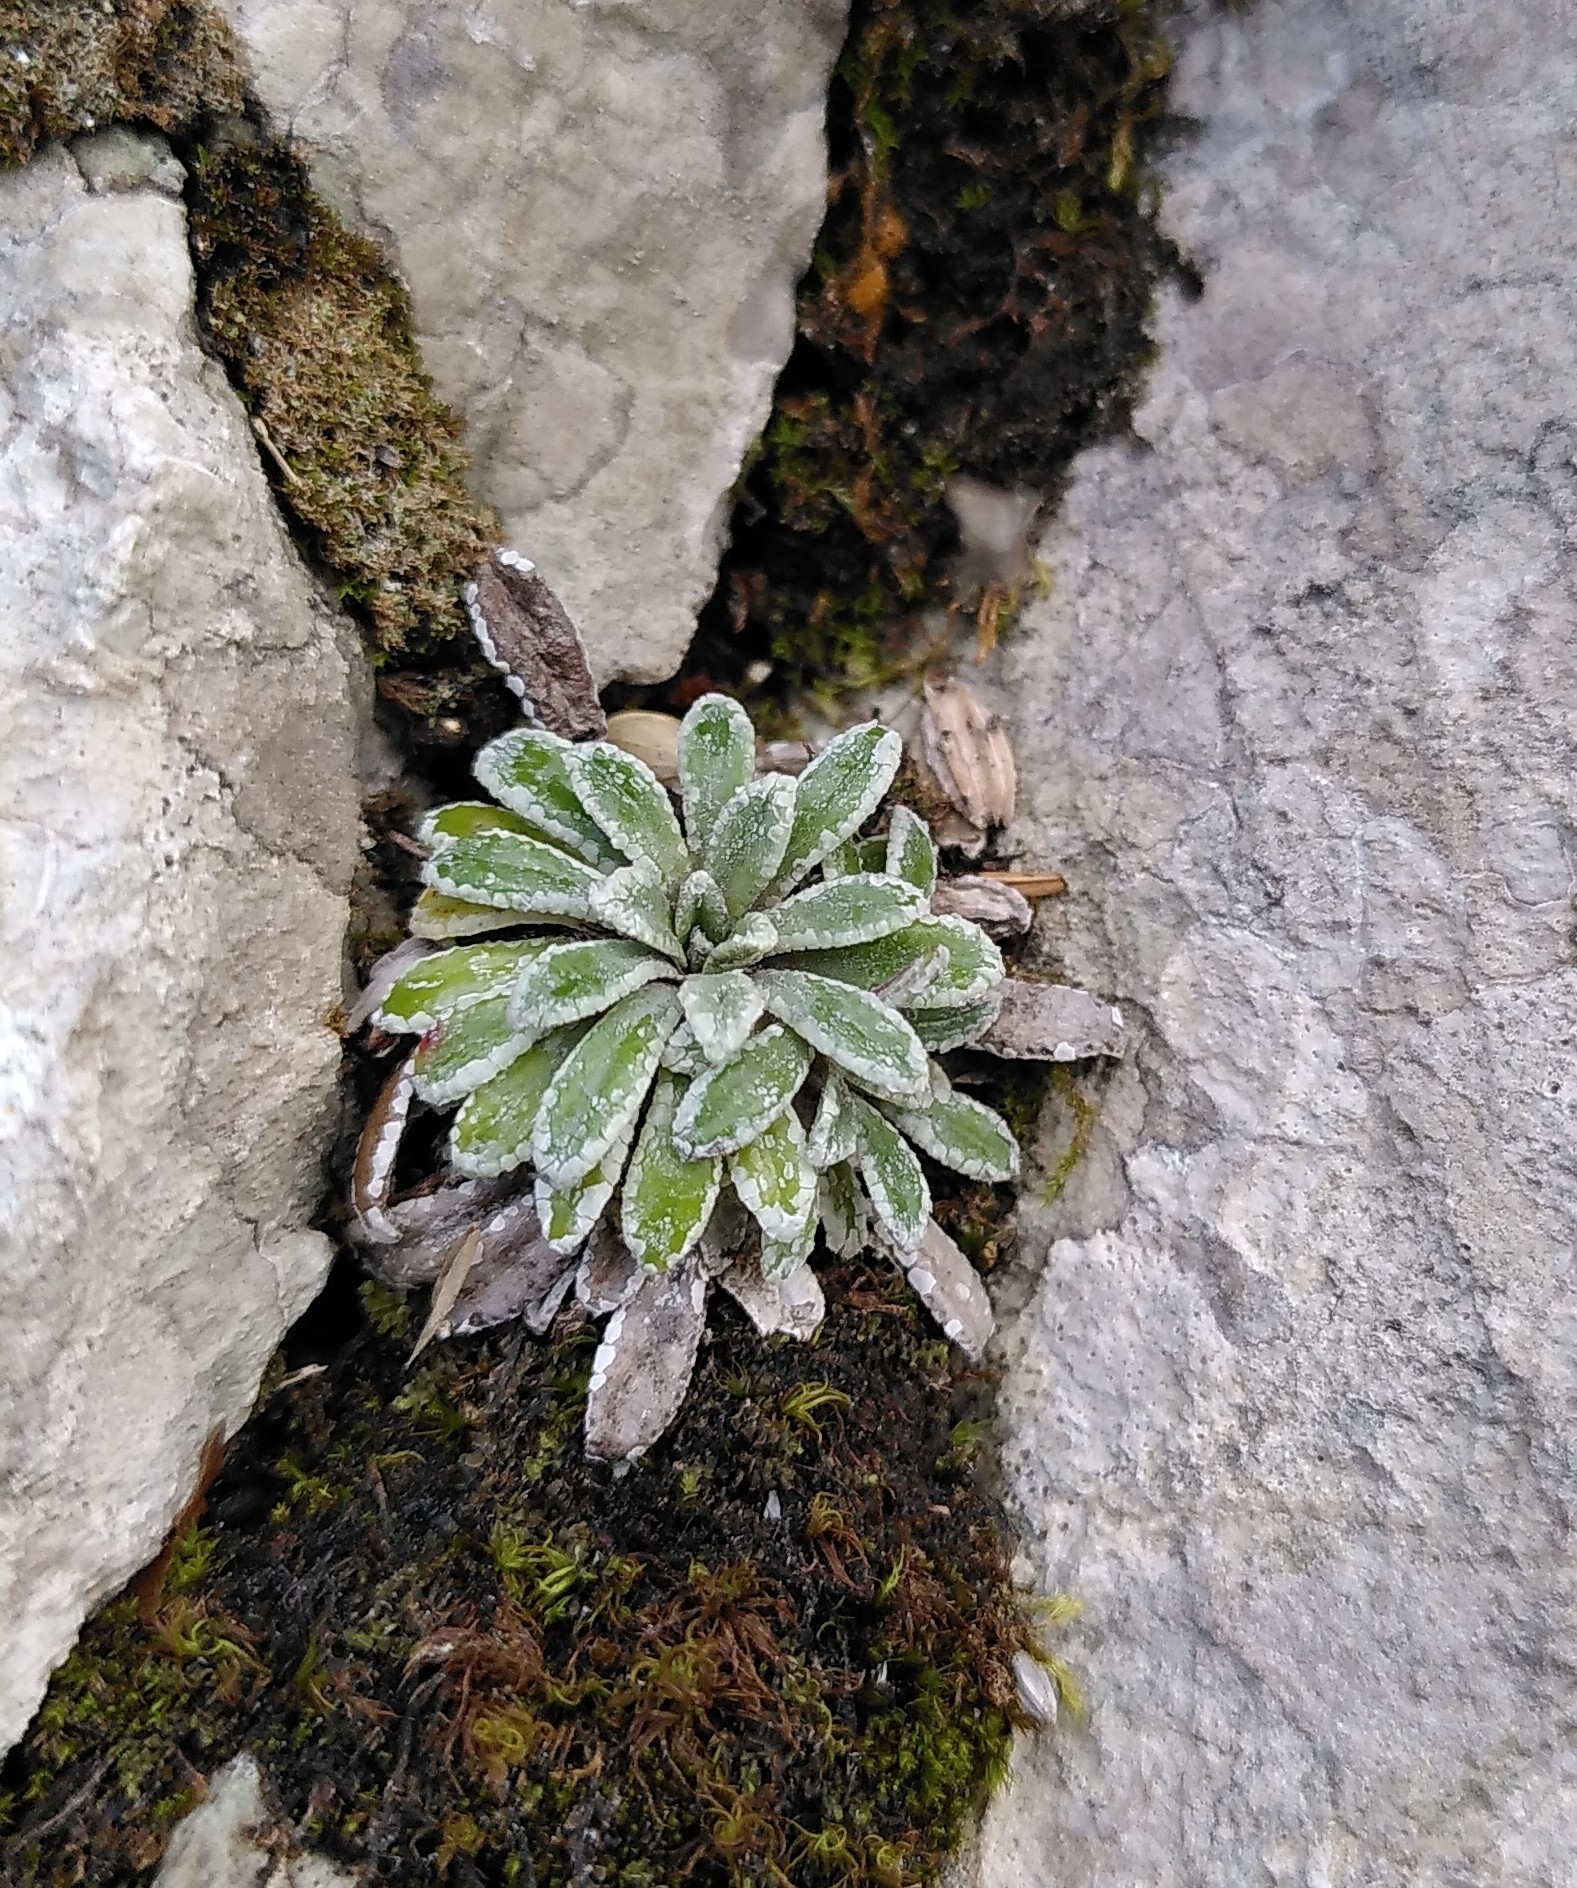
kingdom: Plantae
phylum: Tracheophyta
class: Magnoliopsida
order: Saxifragales
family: Saxifragaceae
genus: Saxifraga
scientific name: Saxifraga crustata
